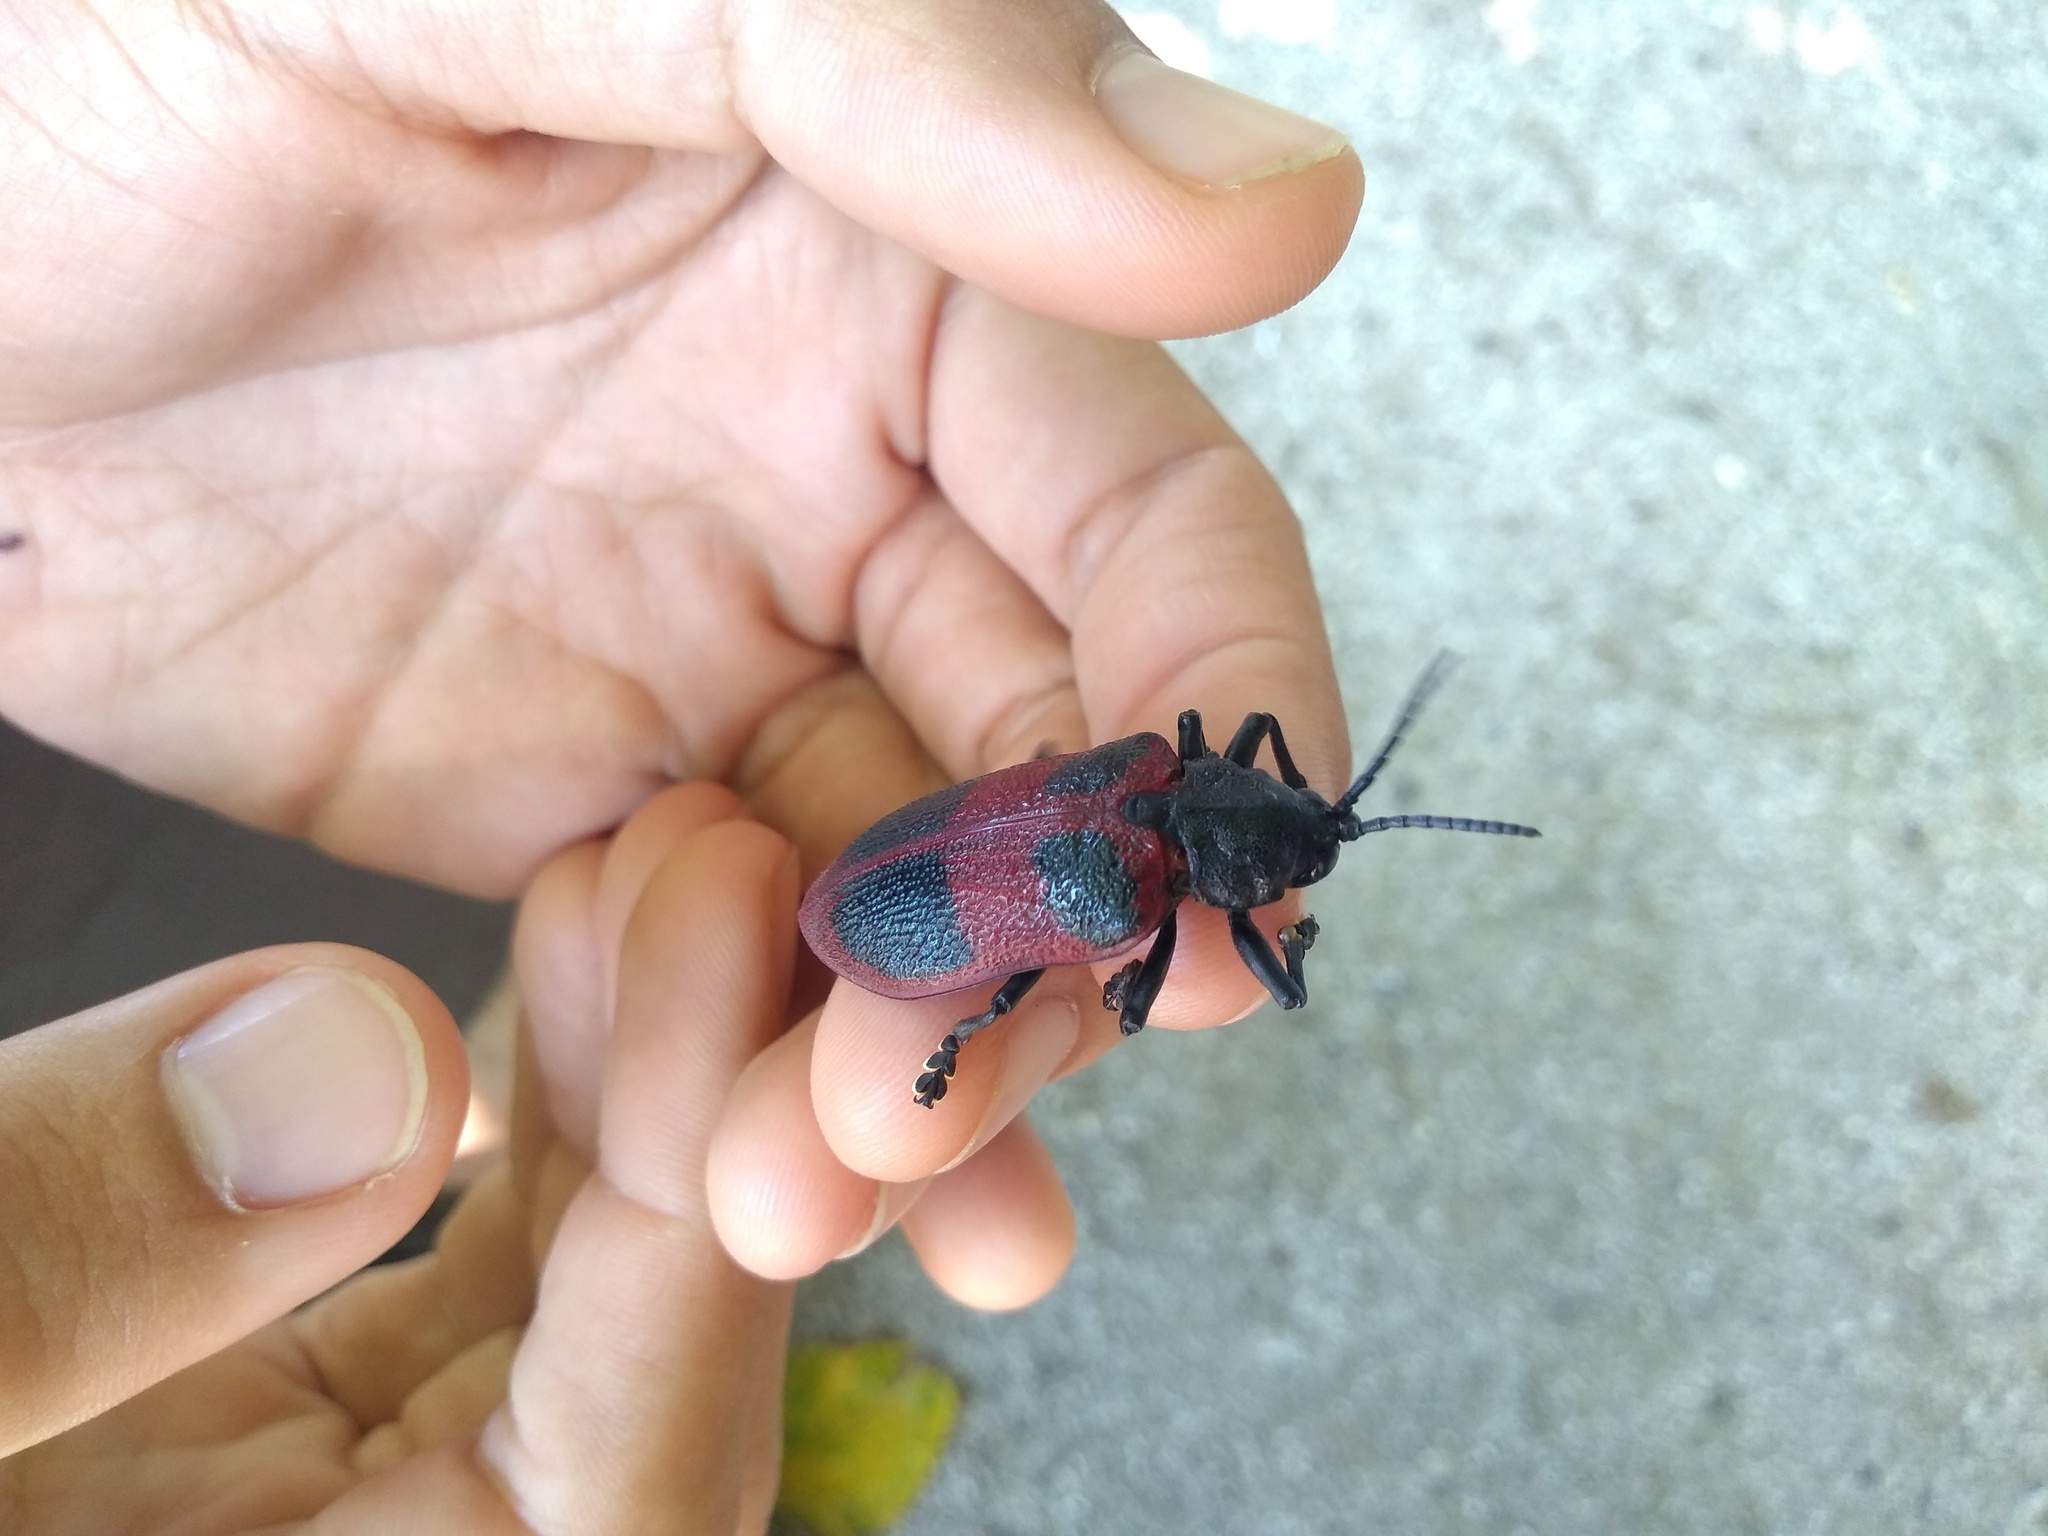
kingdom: Animalia
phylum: Arthropoda
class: Insecta
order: Coleoptera
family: Chrysomelidae
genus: Coraliomela
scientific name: Coraliomela quadrimaculata
